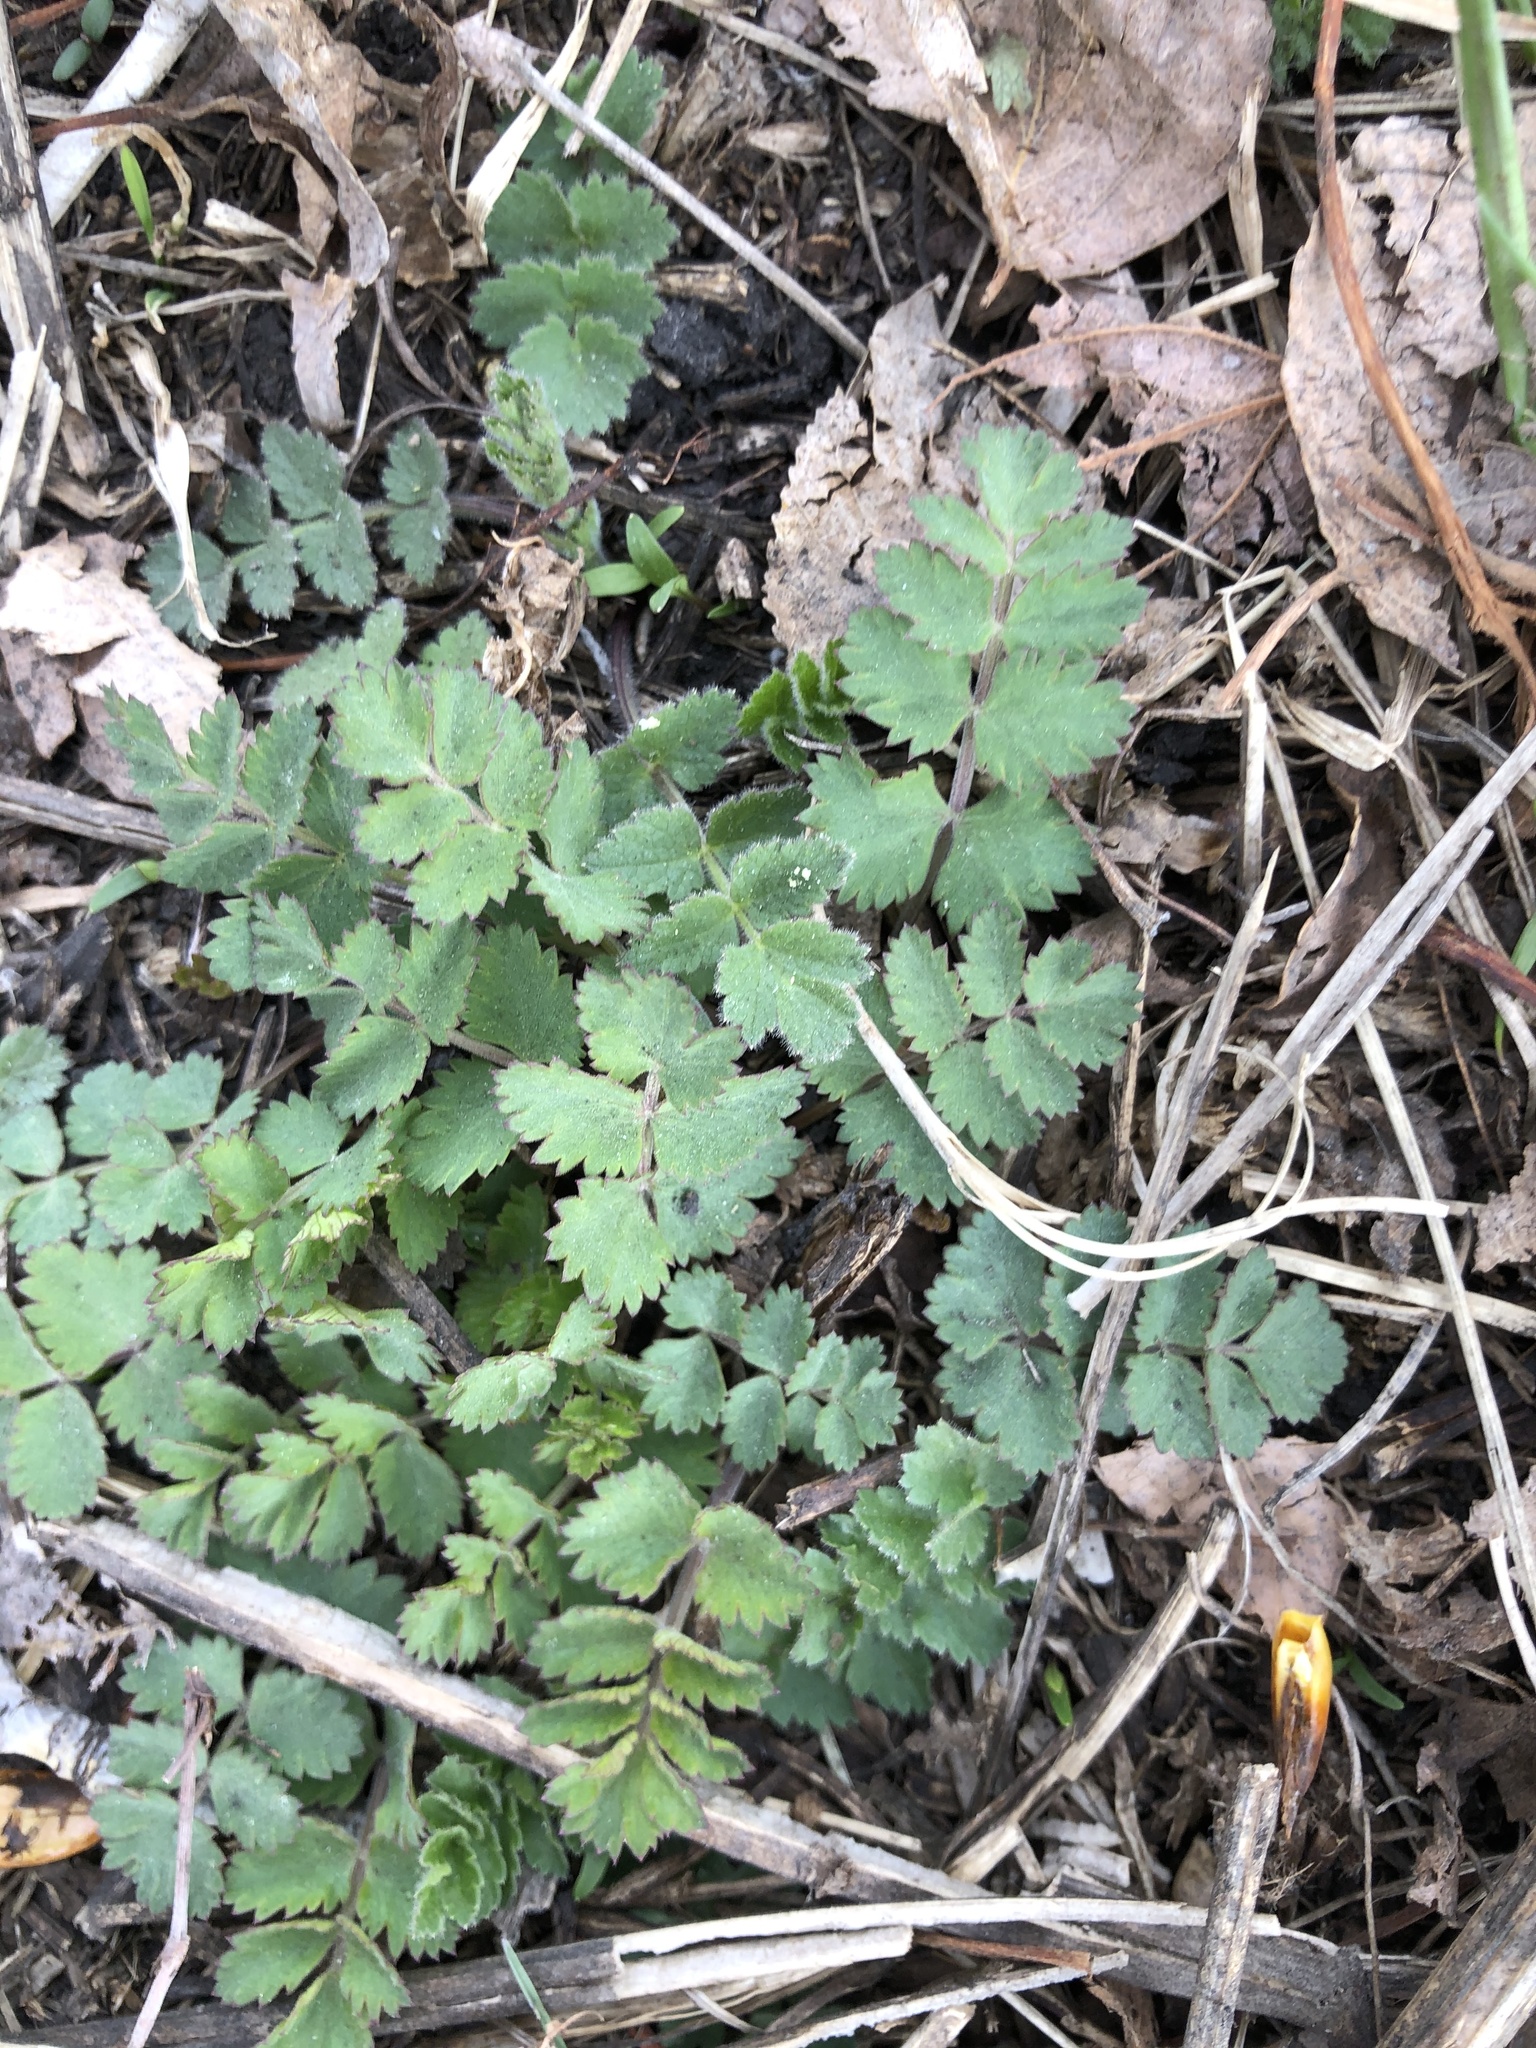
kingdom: Plantae
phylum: Tracheophyta
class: Magnoliopsida
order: Apiales
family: Apiaceae
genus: Pimpinella
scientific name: Pimpinella saxifraga
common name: Burnet-saxifrage
